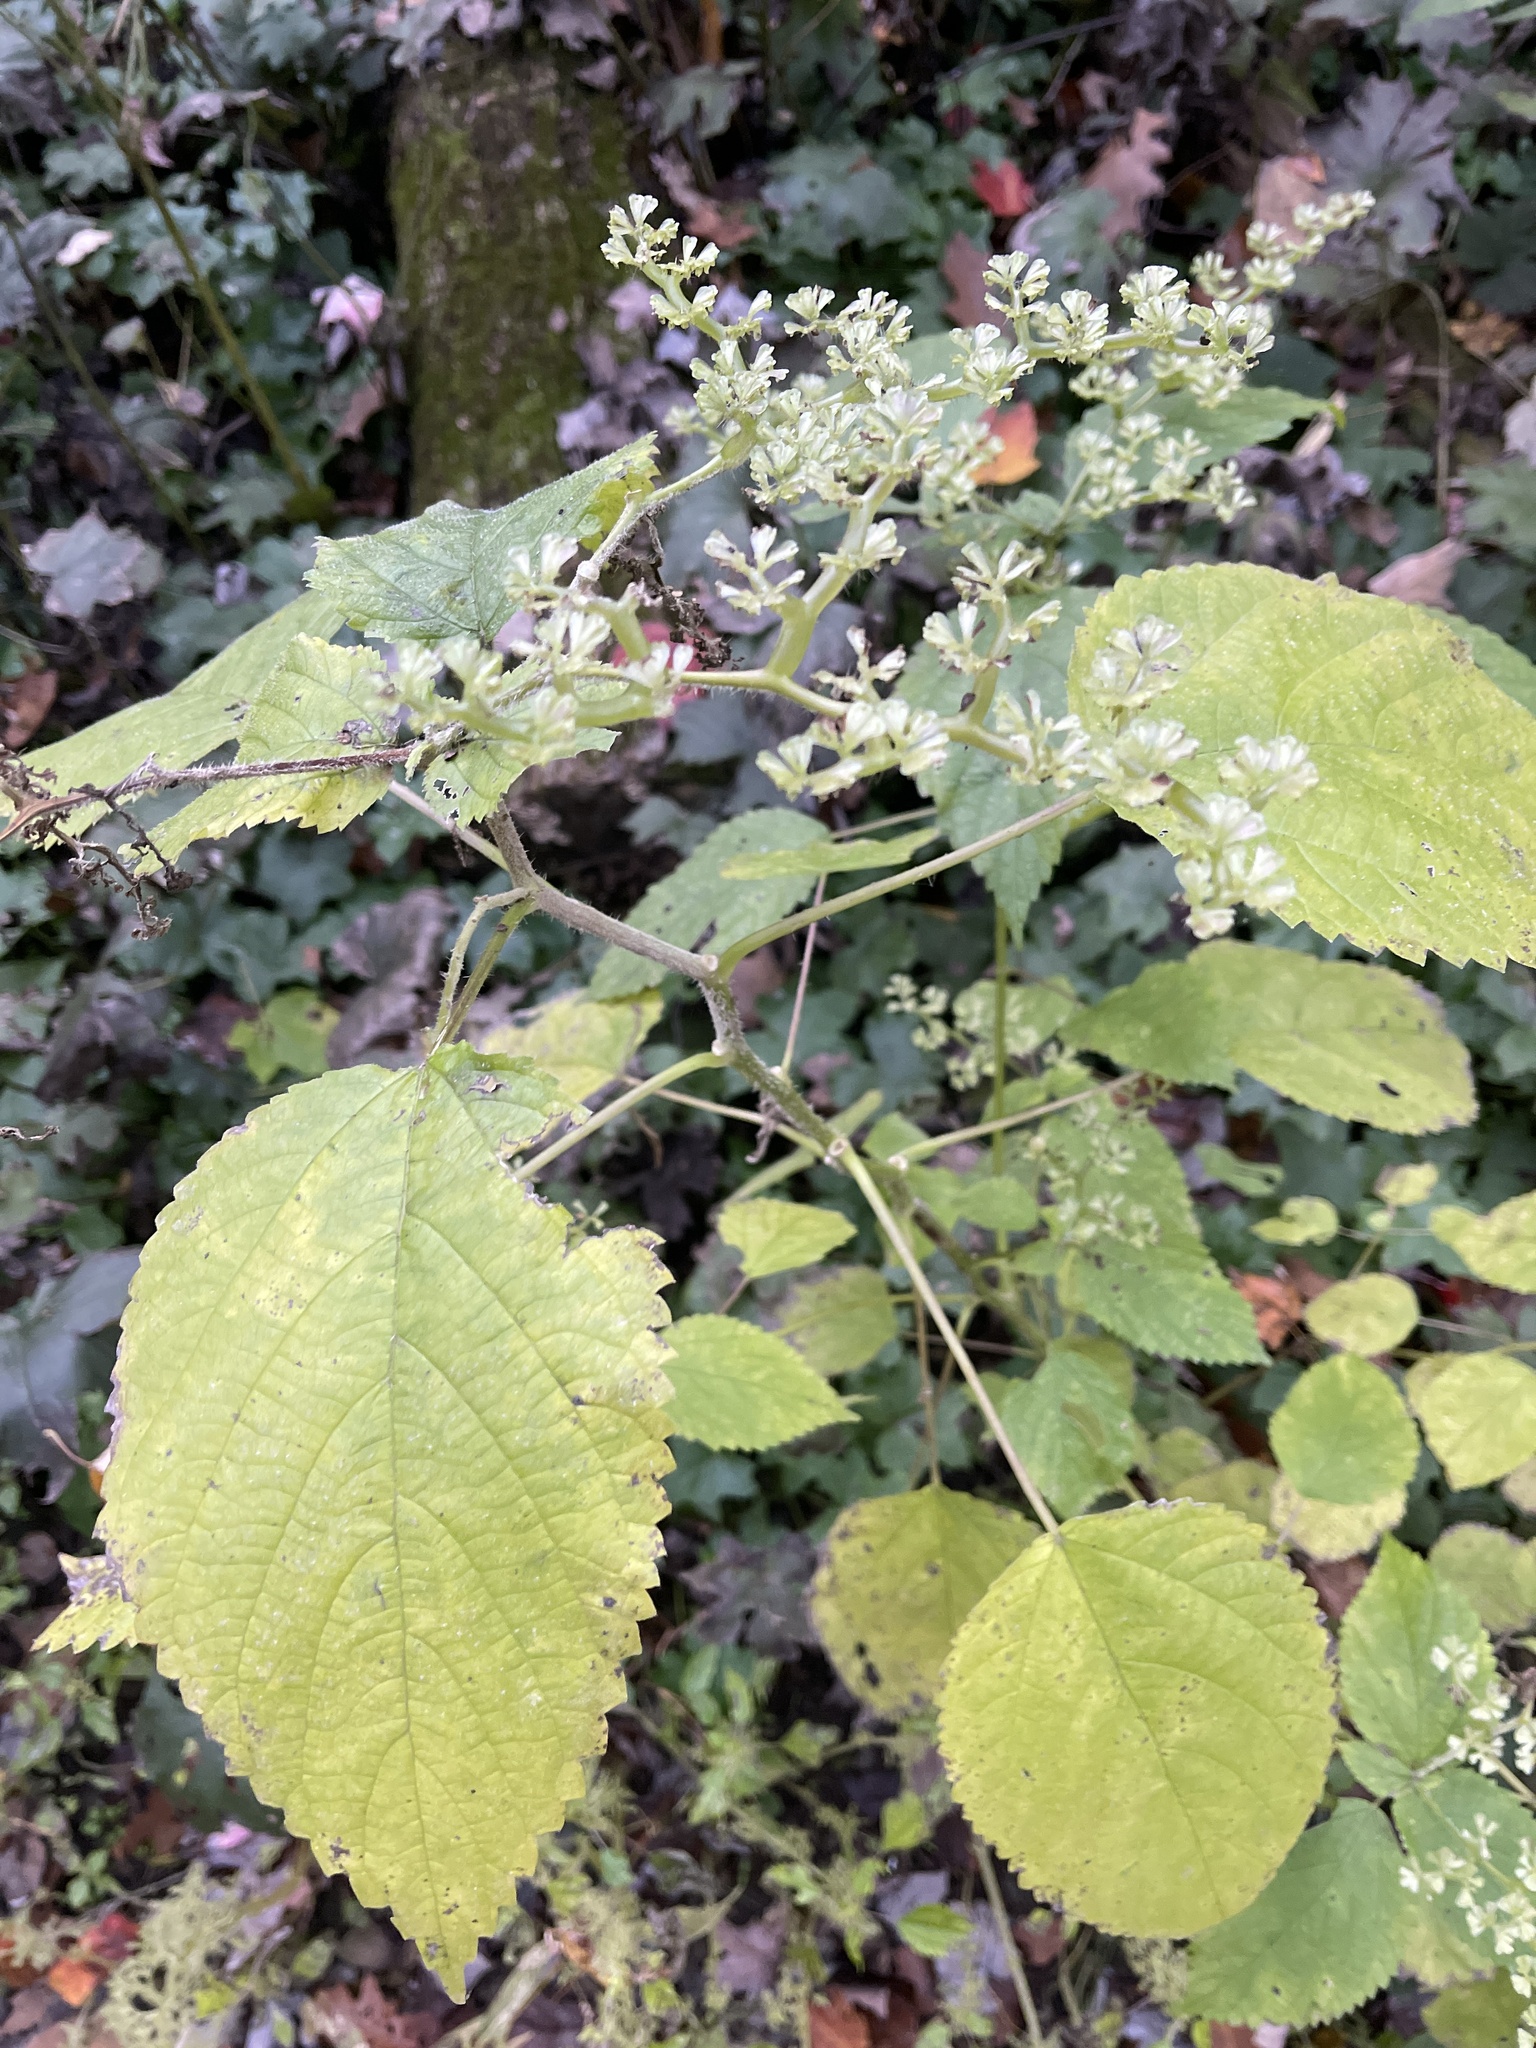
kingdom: Plantae
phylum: Tracheophyta
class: Magnoliopsida
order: Rosales
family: Urticaceae
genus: Laportea
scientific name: Laportea canadensis
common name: Canada nettle
